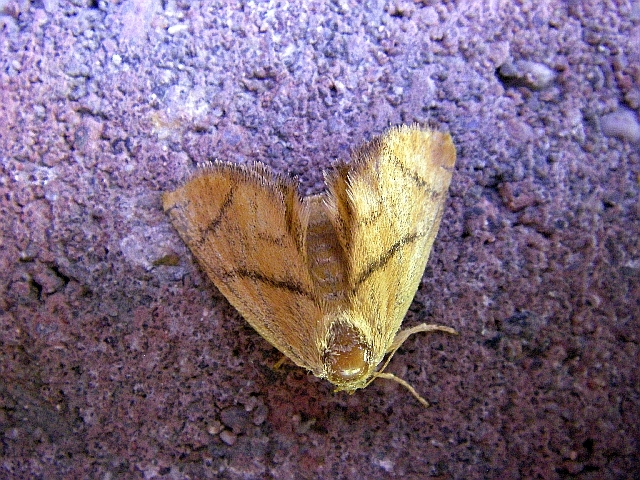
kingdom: Animalia
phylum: Arthropoda
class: Insecta
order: Lepidoptera
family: Limacodidae
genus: Apoda
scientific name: Apoda limacodes
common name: Festoon
